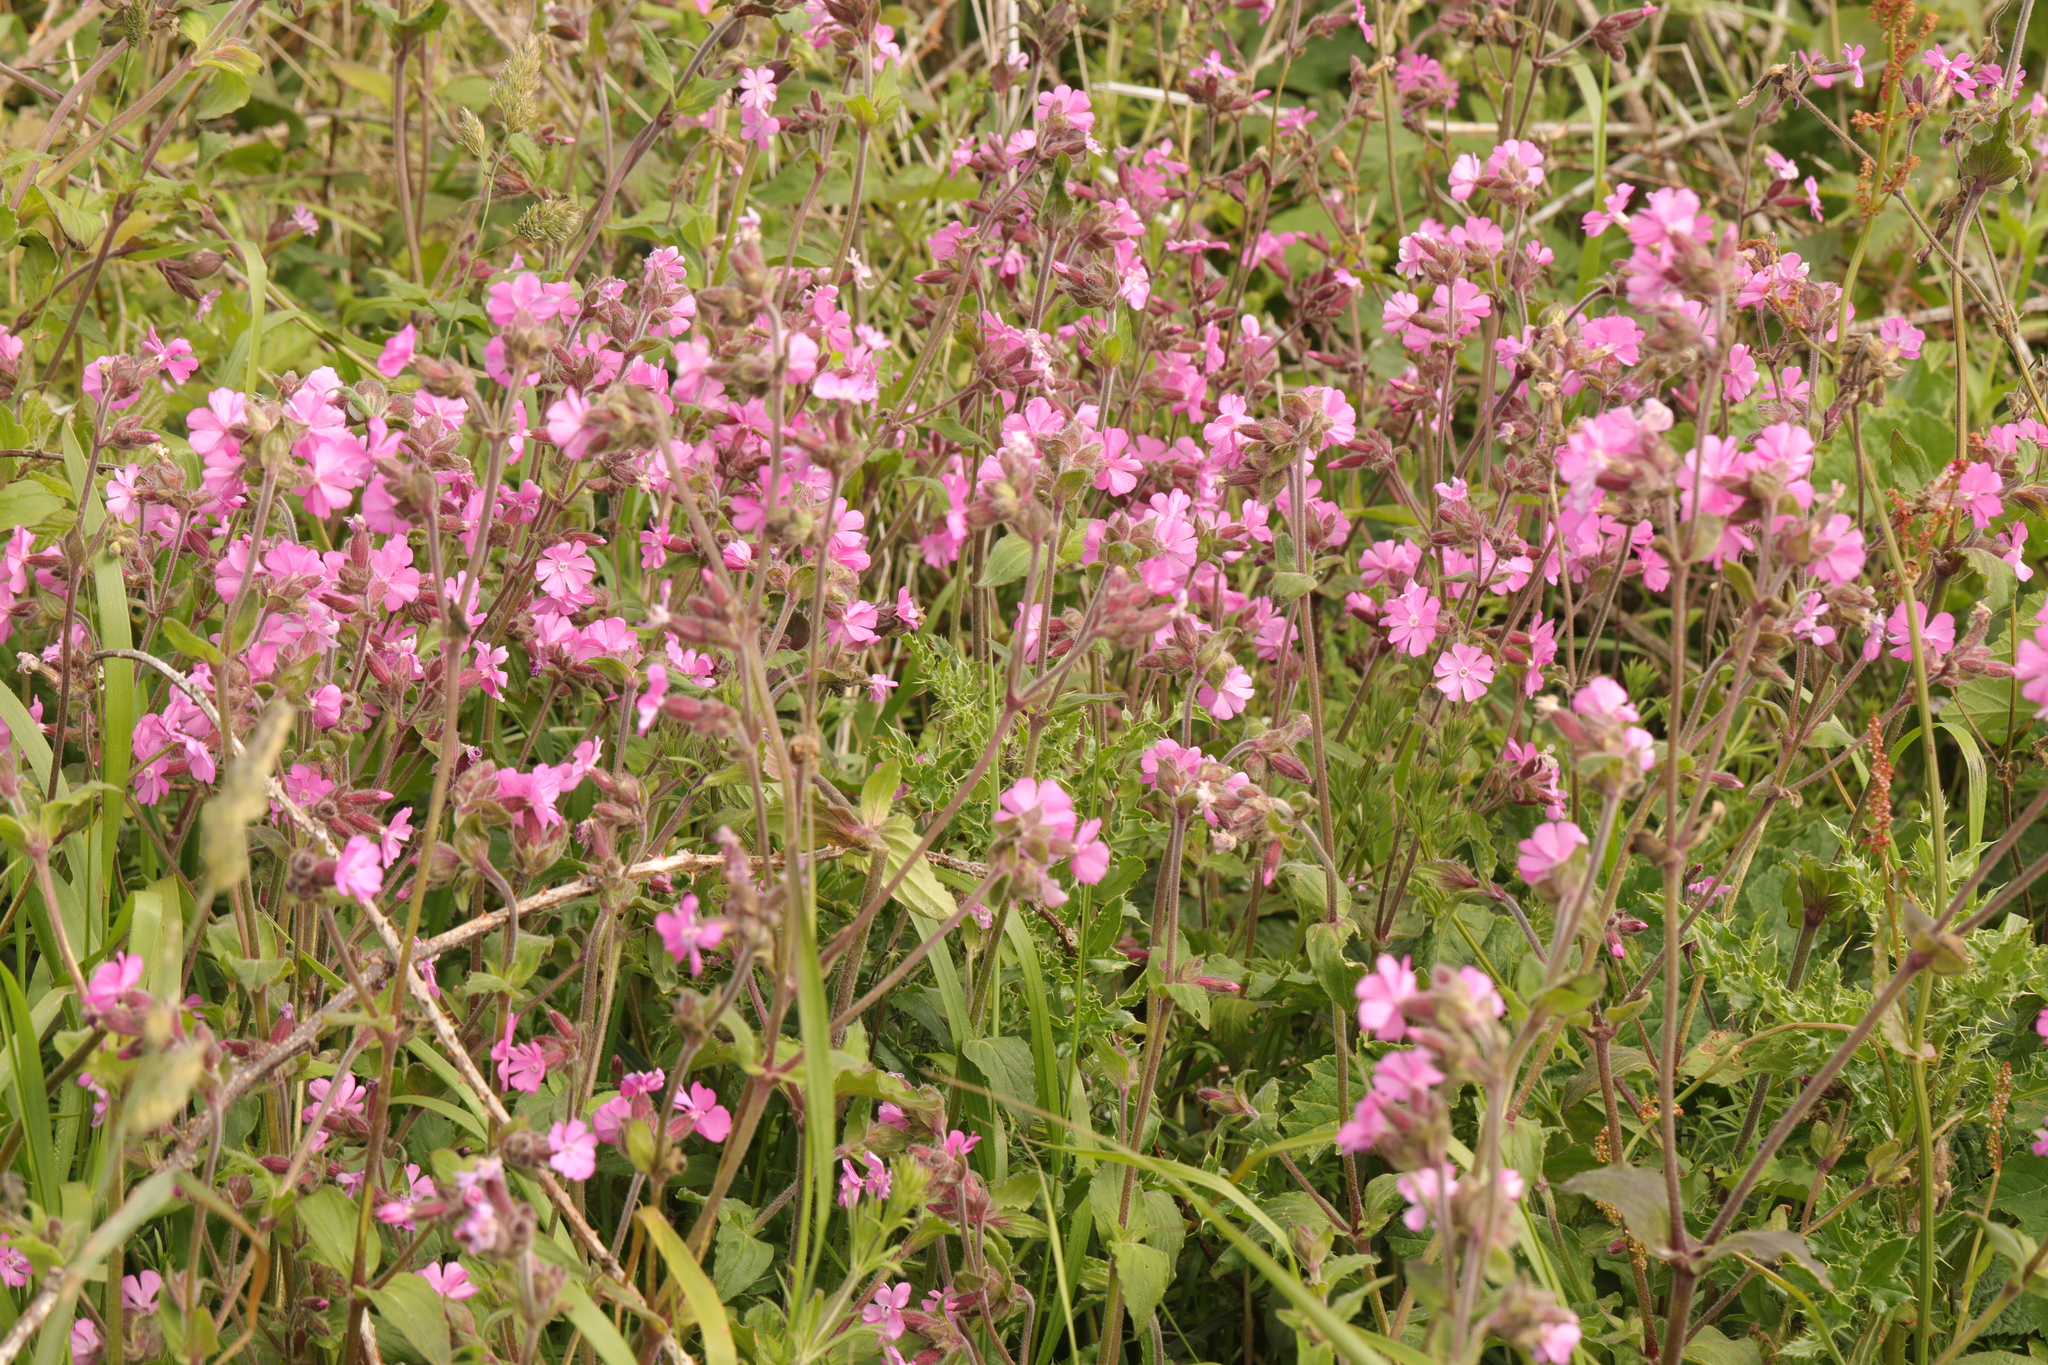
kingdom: Plantae
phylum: Tracheophyta
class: Magnoliopsida
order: Caryophyllales
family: Caryophyllaceae
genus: Silene
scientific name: Silene dioica
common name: Red campion
